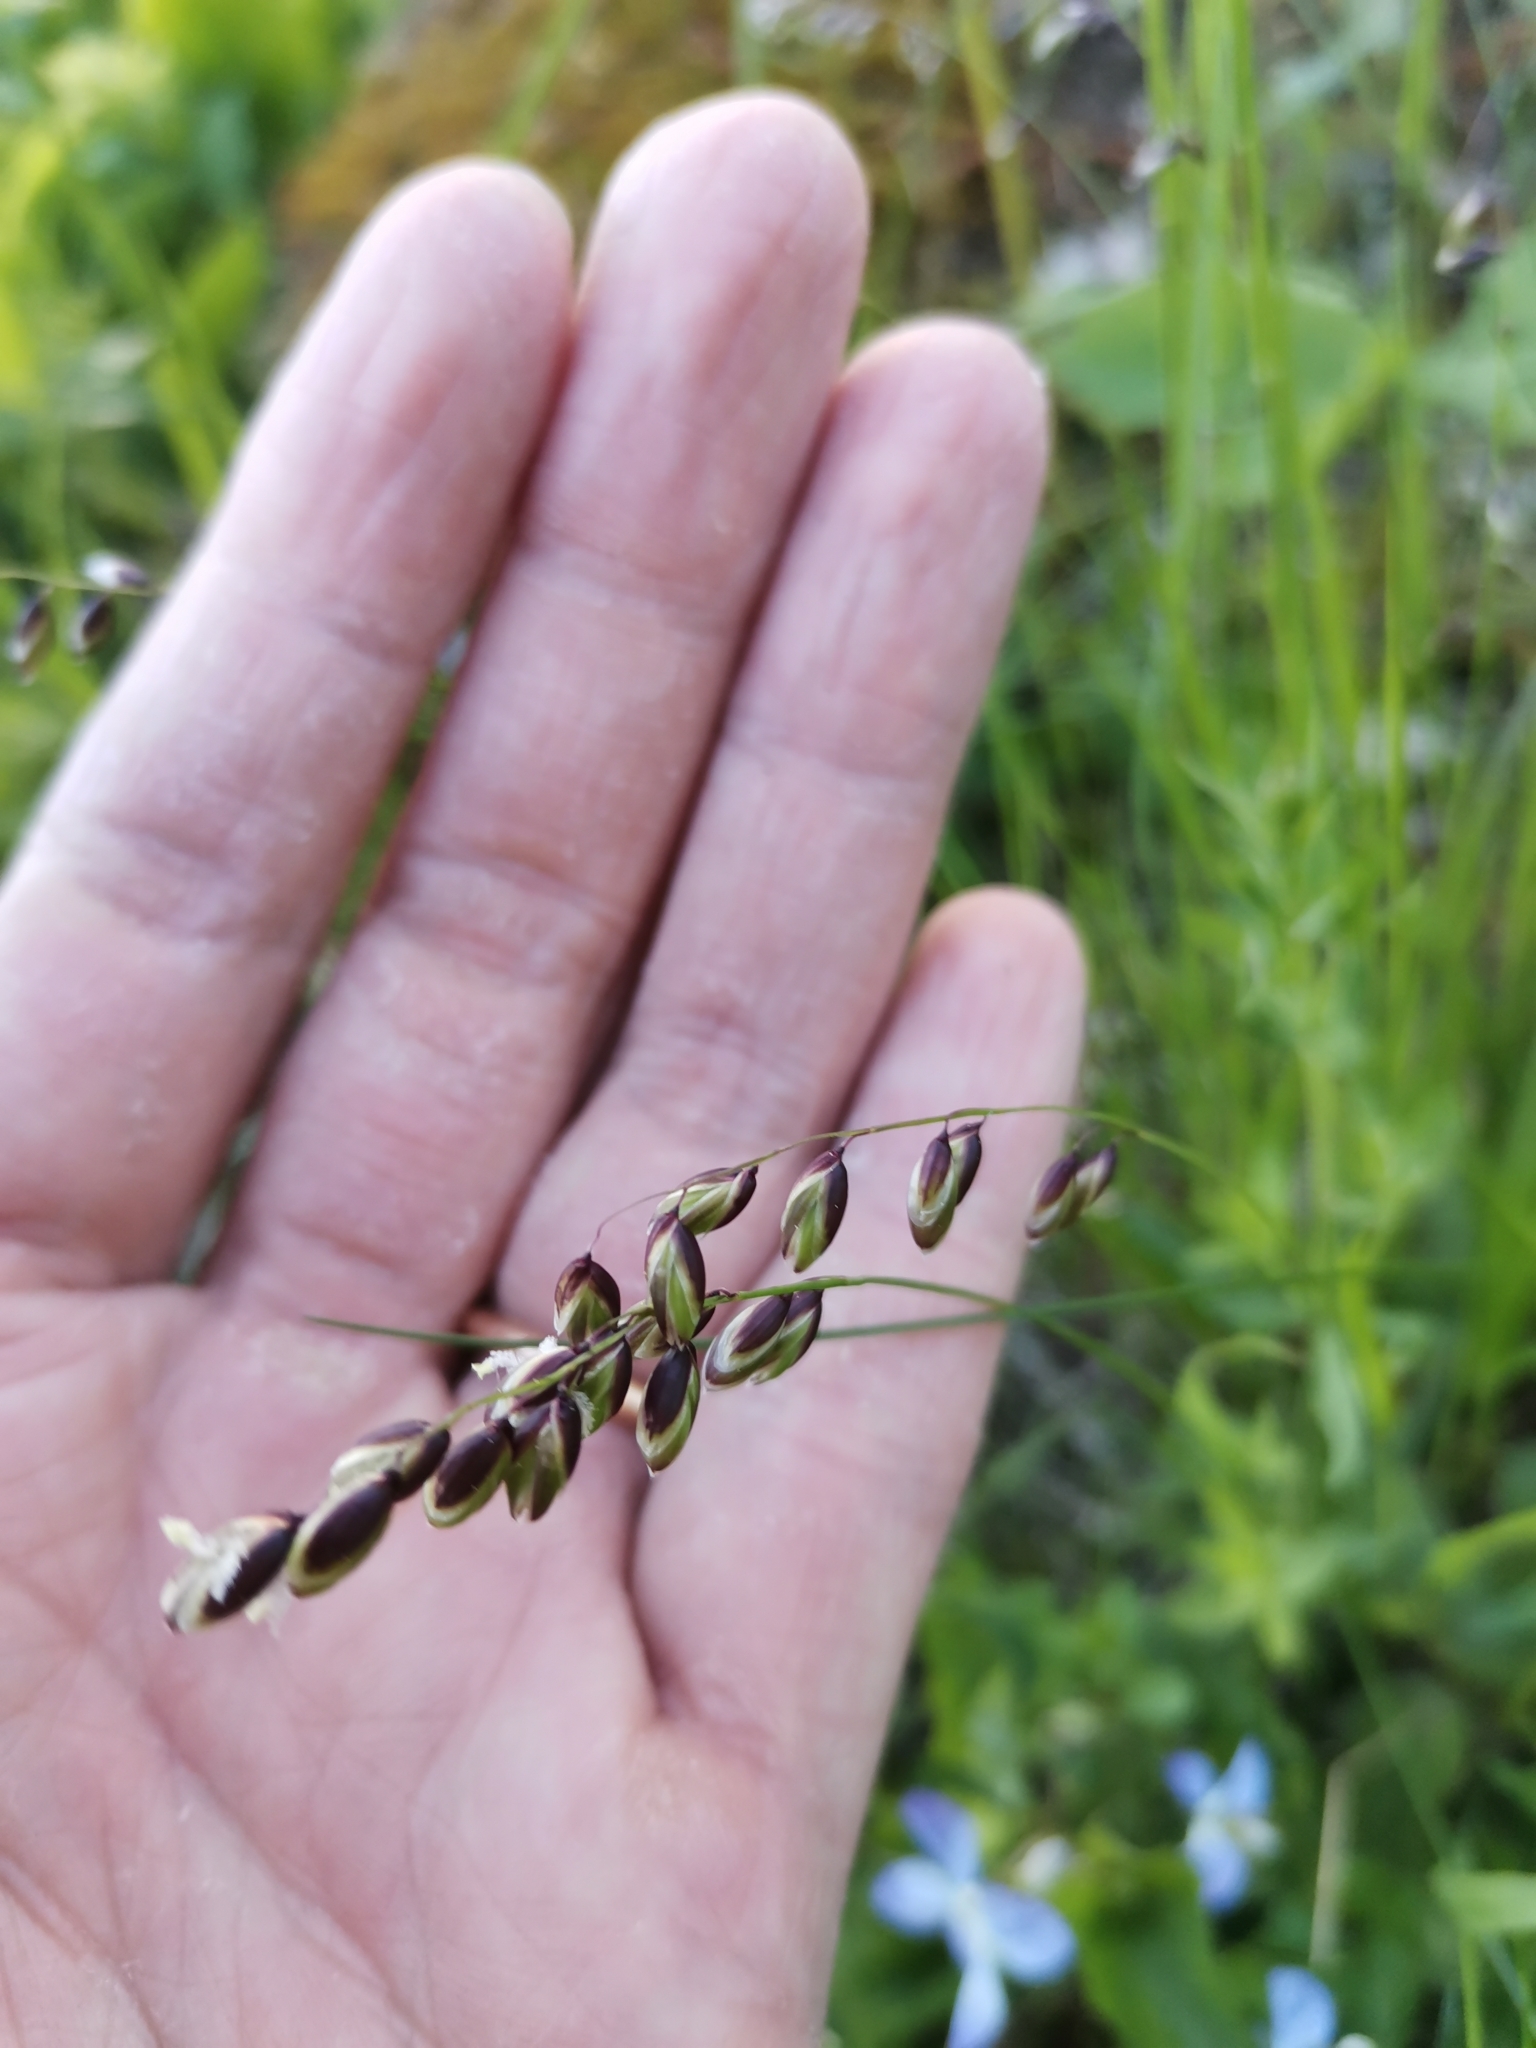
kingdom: Plantae
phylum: Tracheophyta
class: Liliopsida
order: Poales
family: Poaceae
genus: Melica
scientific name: Melica nutans
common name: Mountain melick
